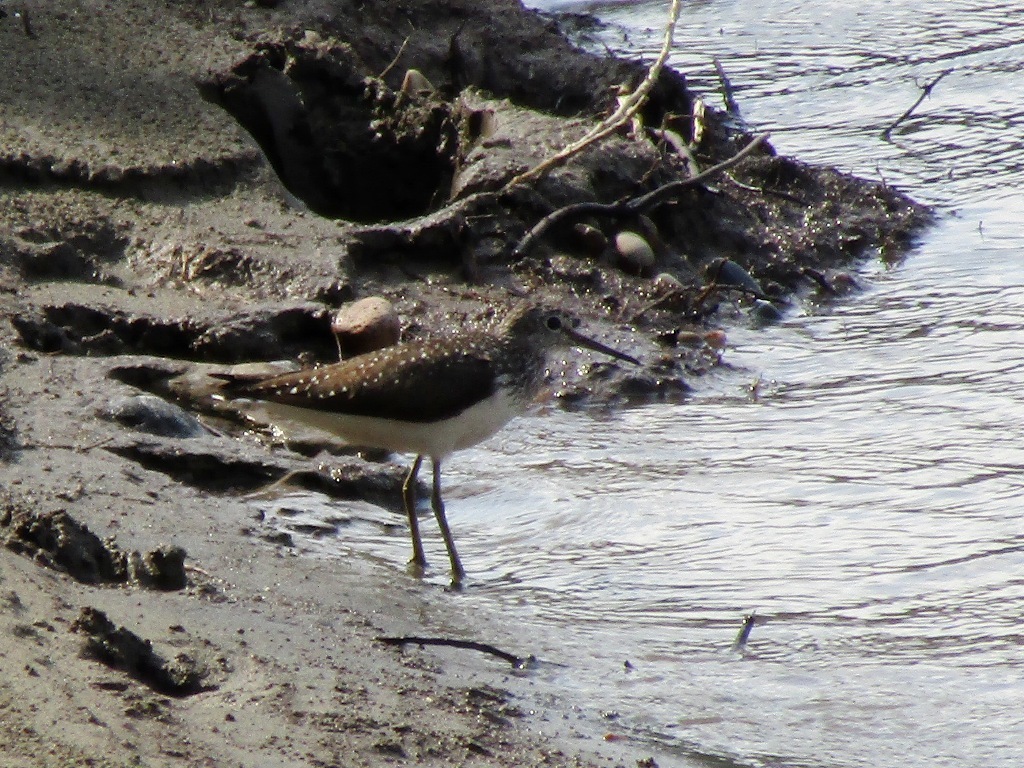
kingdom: Animalia
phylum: Chordata
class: Aves
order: Charadriiformes
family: Scolopacidae
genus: Tringa
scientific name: Tringa ochropus
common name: Green sandpiper
